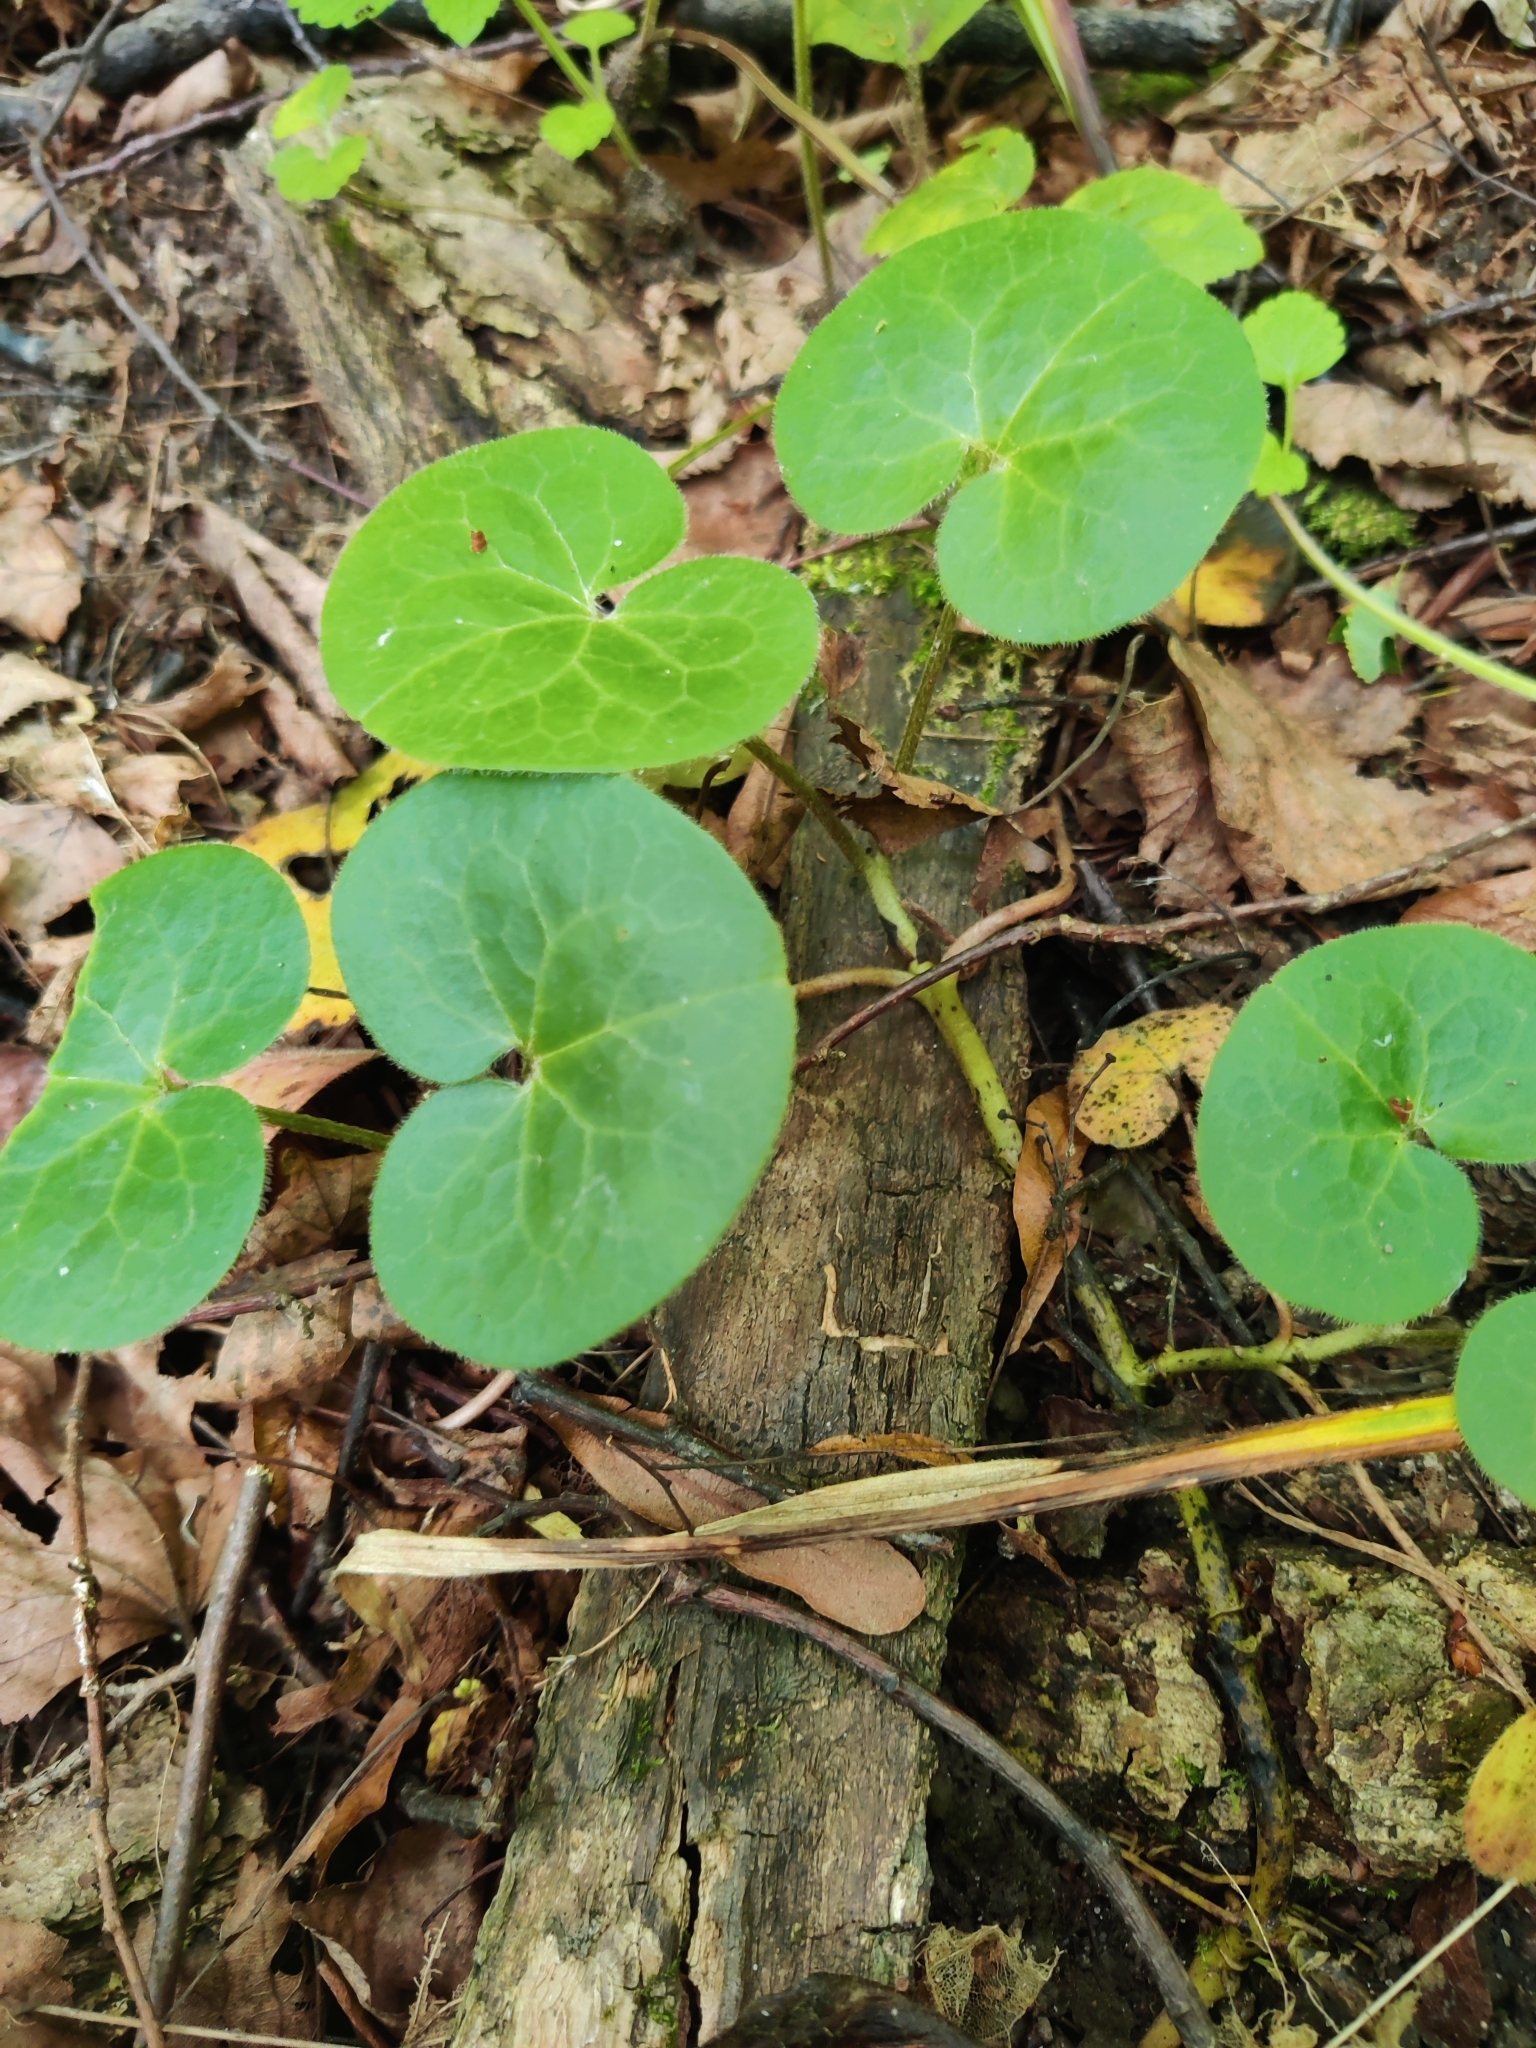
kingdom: Plantae
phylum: Tracheophyta
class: Magnoliopsida
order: Piperales
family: Aristolochiaceae
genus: Asarum
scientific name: Asarum europaeum
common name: Asarabacca
